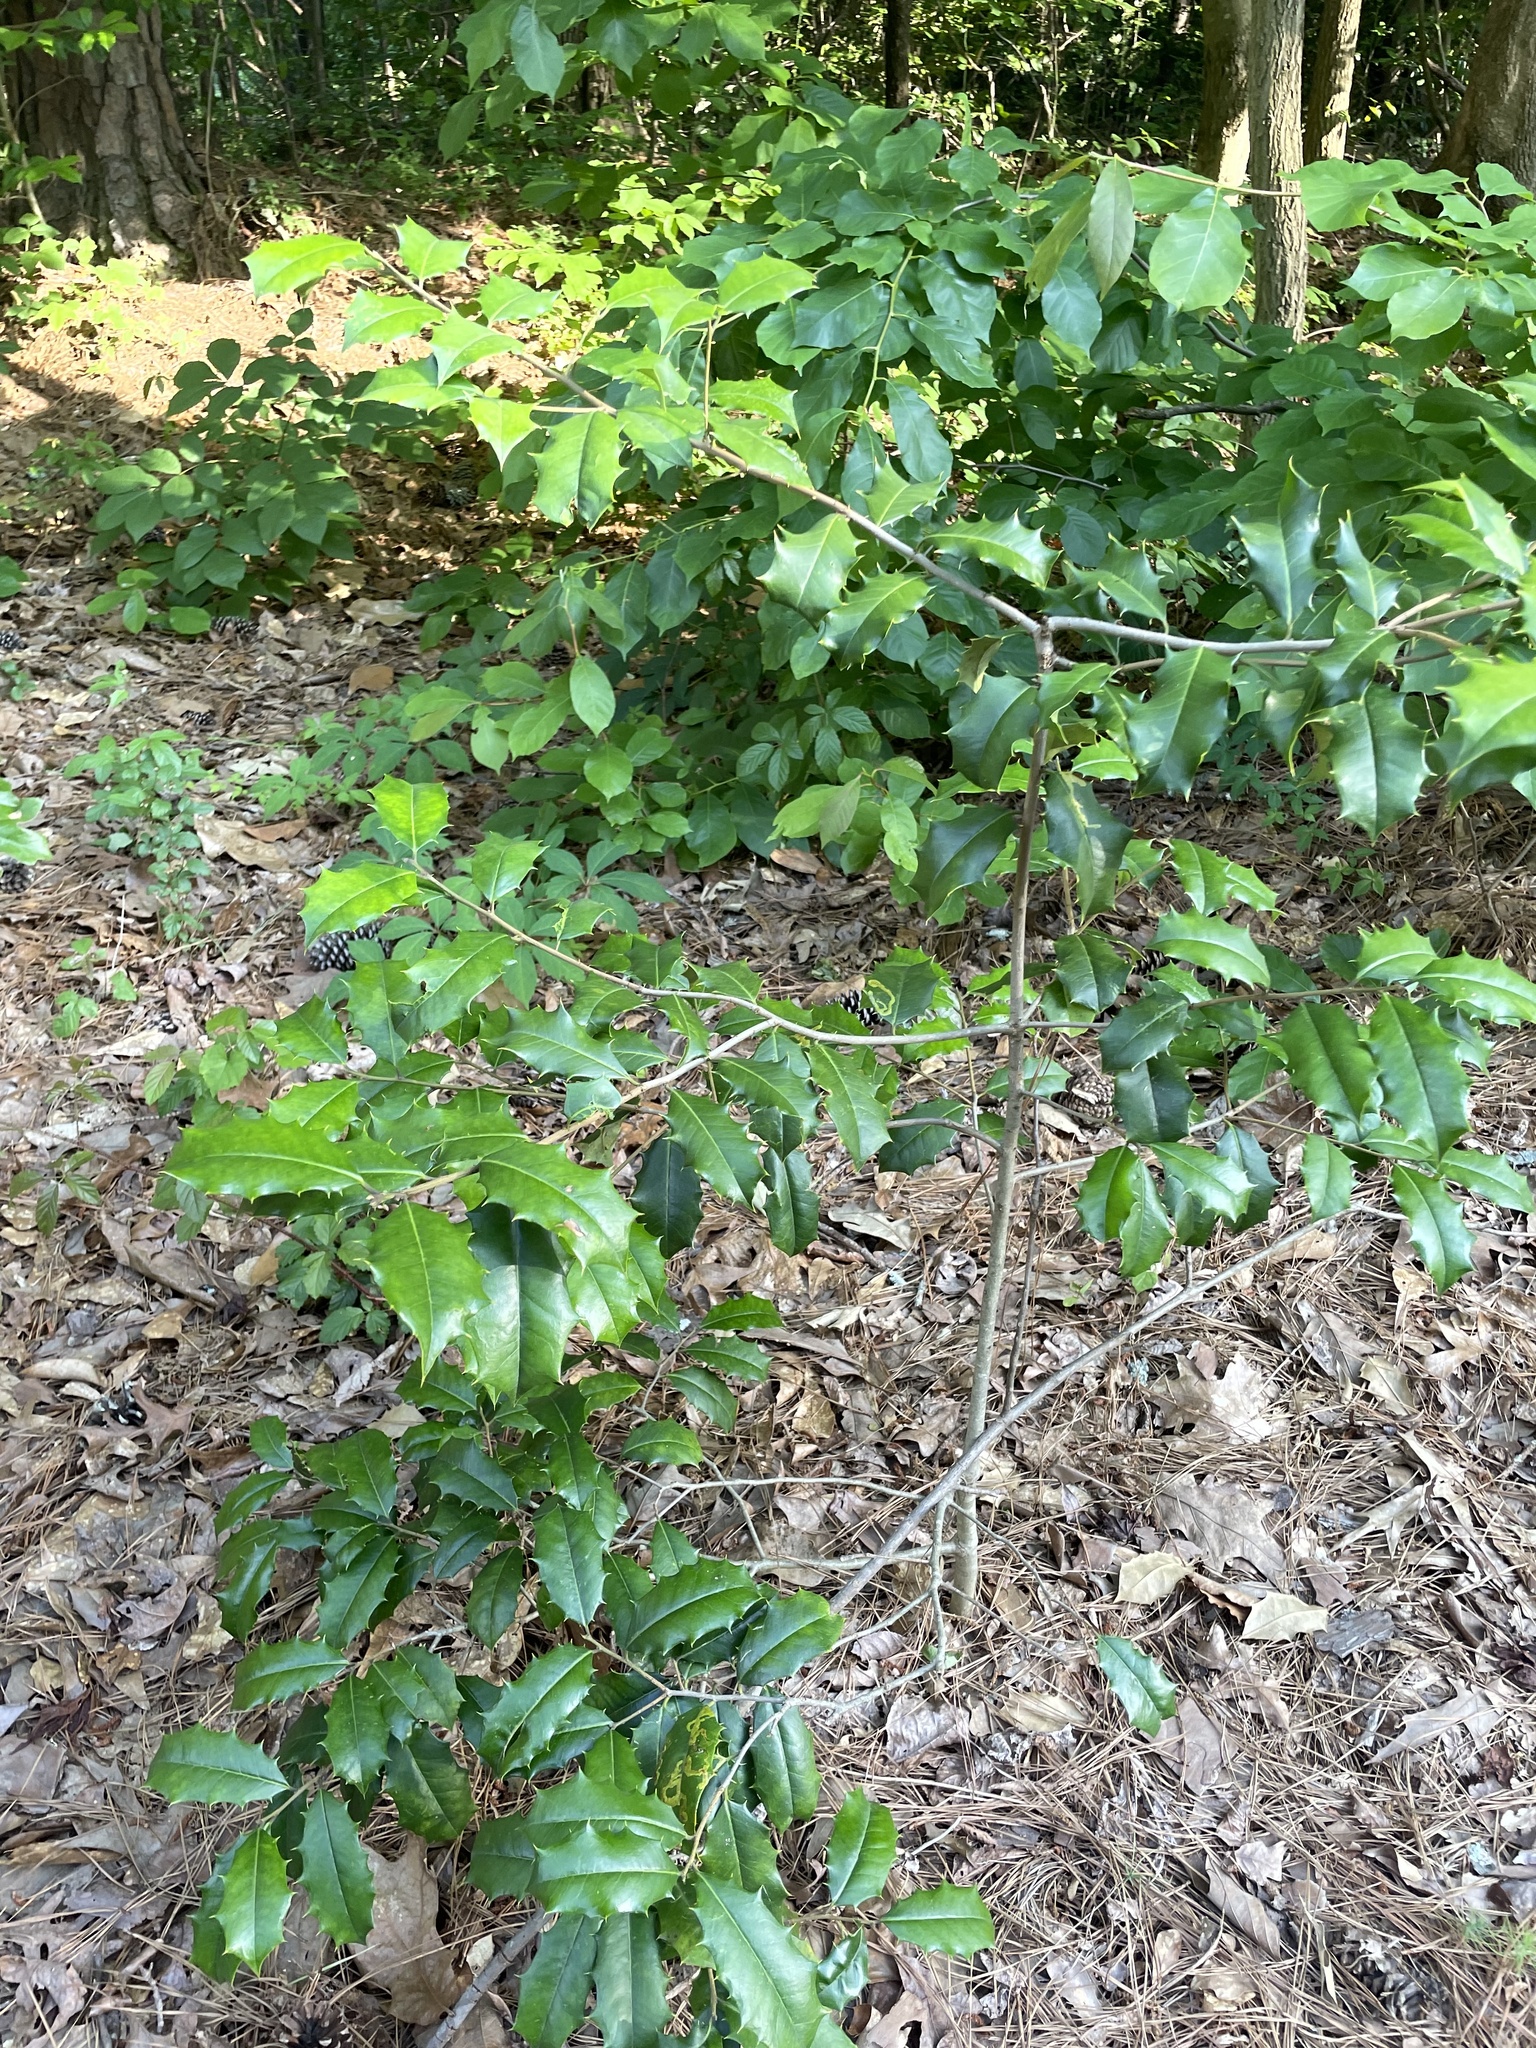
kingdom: Plantae
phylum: Tracheophyta
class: Magnoliopsida
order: Aquifoliales
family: Aquifoliaceae
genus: Ilex
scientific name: Ilex opaca
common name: American holly
